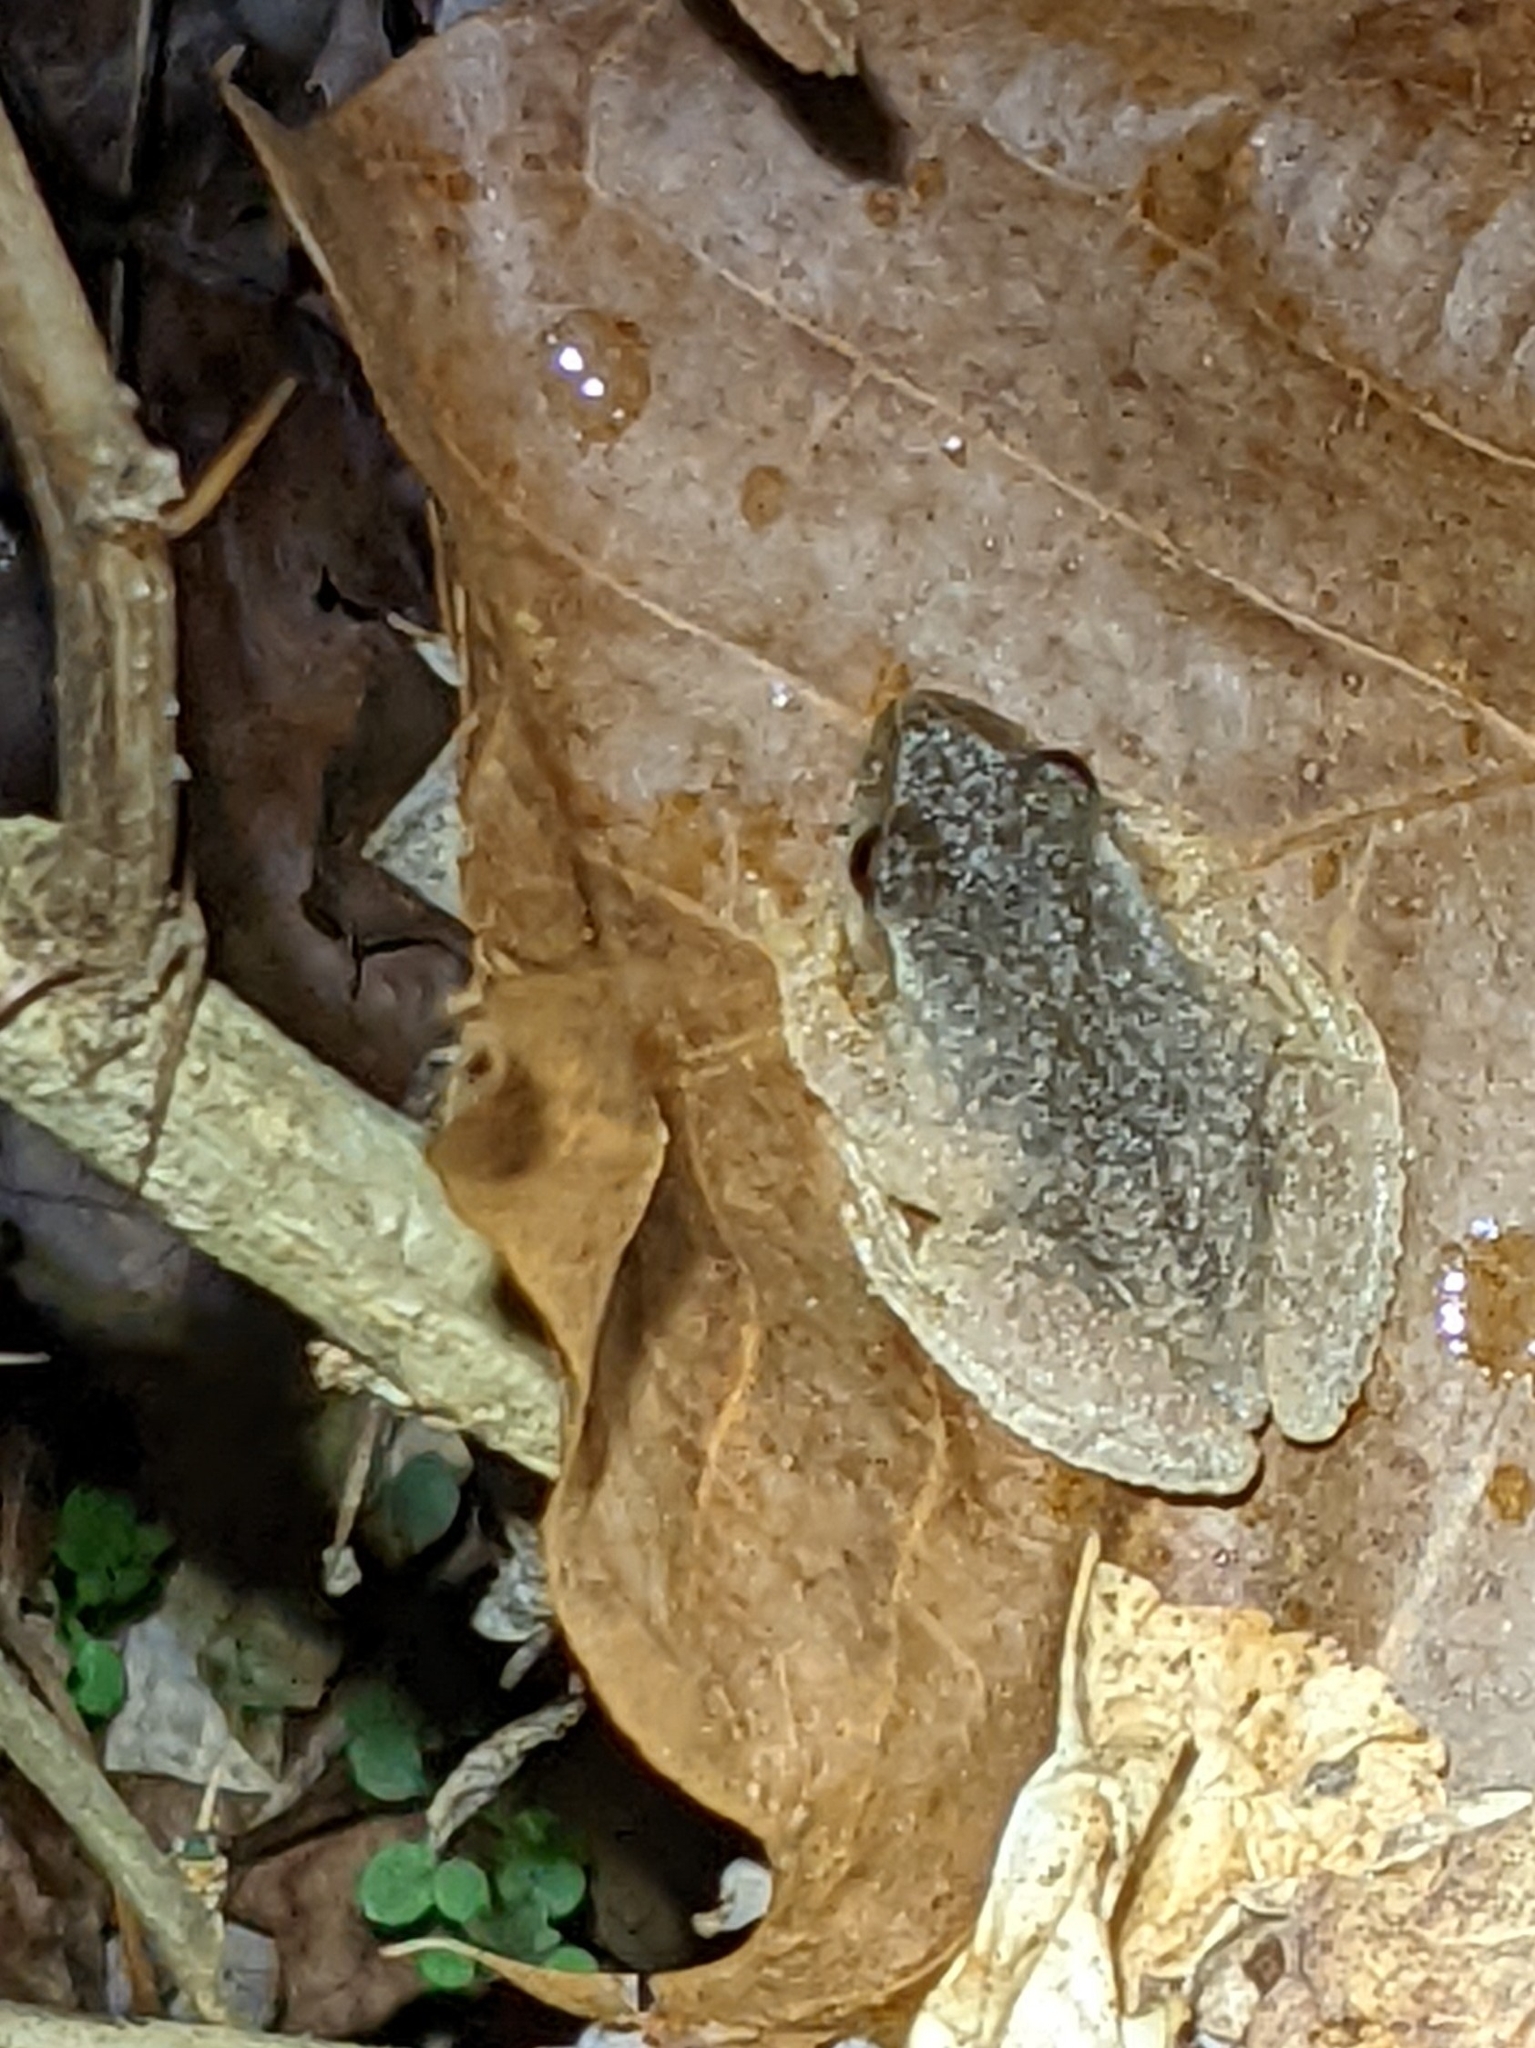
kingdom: Animalia
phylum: Chordata
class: Amphibia
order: Anura
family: Hylidae
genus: Pseudacris
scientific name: Pseudacris crucifer
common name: Spring peeper
